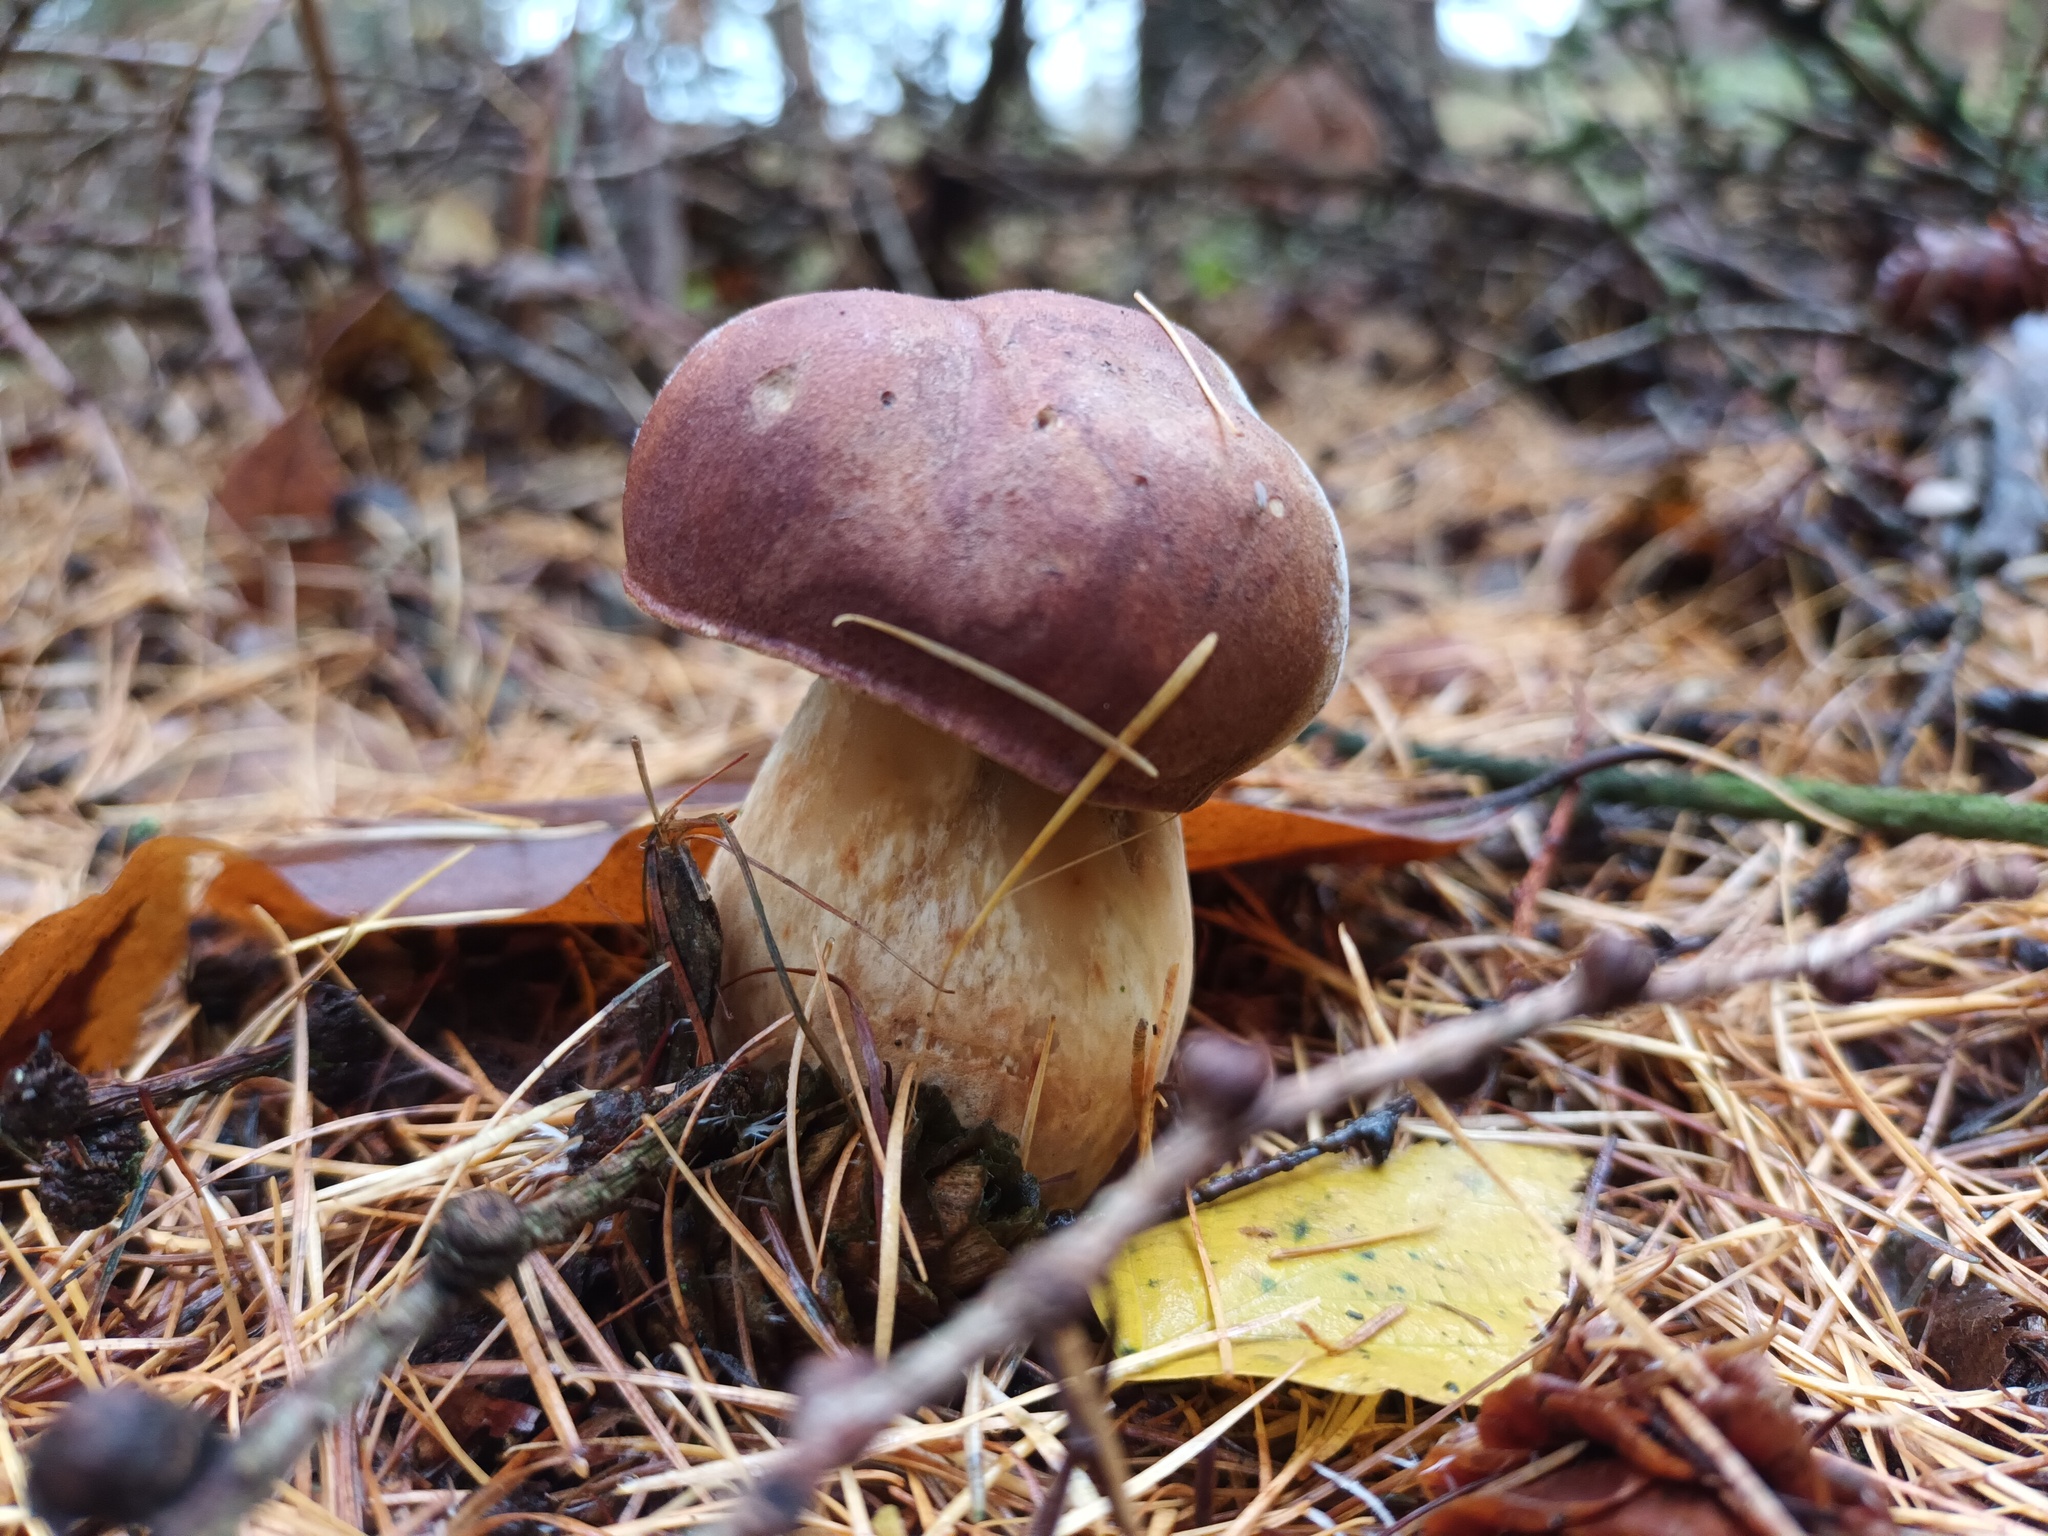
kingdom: Fungi
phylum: Basidiomycota
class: Agaricomycetes
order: Boletales
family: Boletaceae
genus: Imleria
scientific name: Imleria badia
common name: Bay bolete
